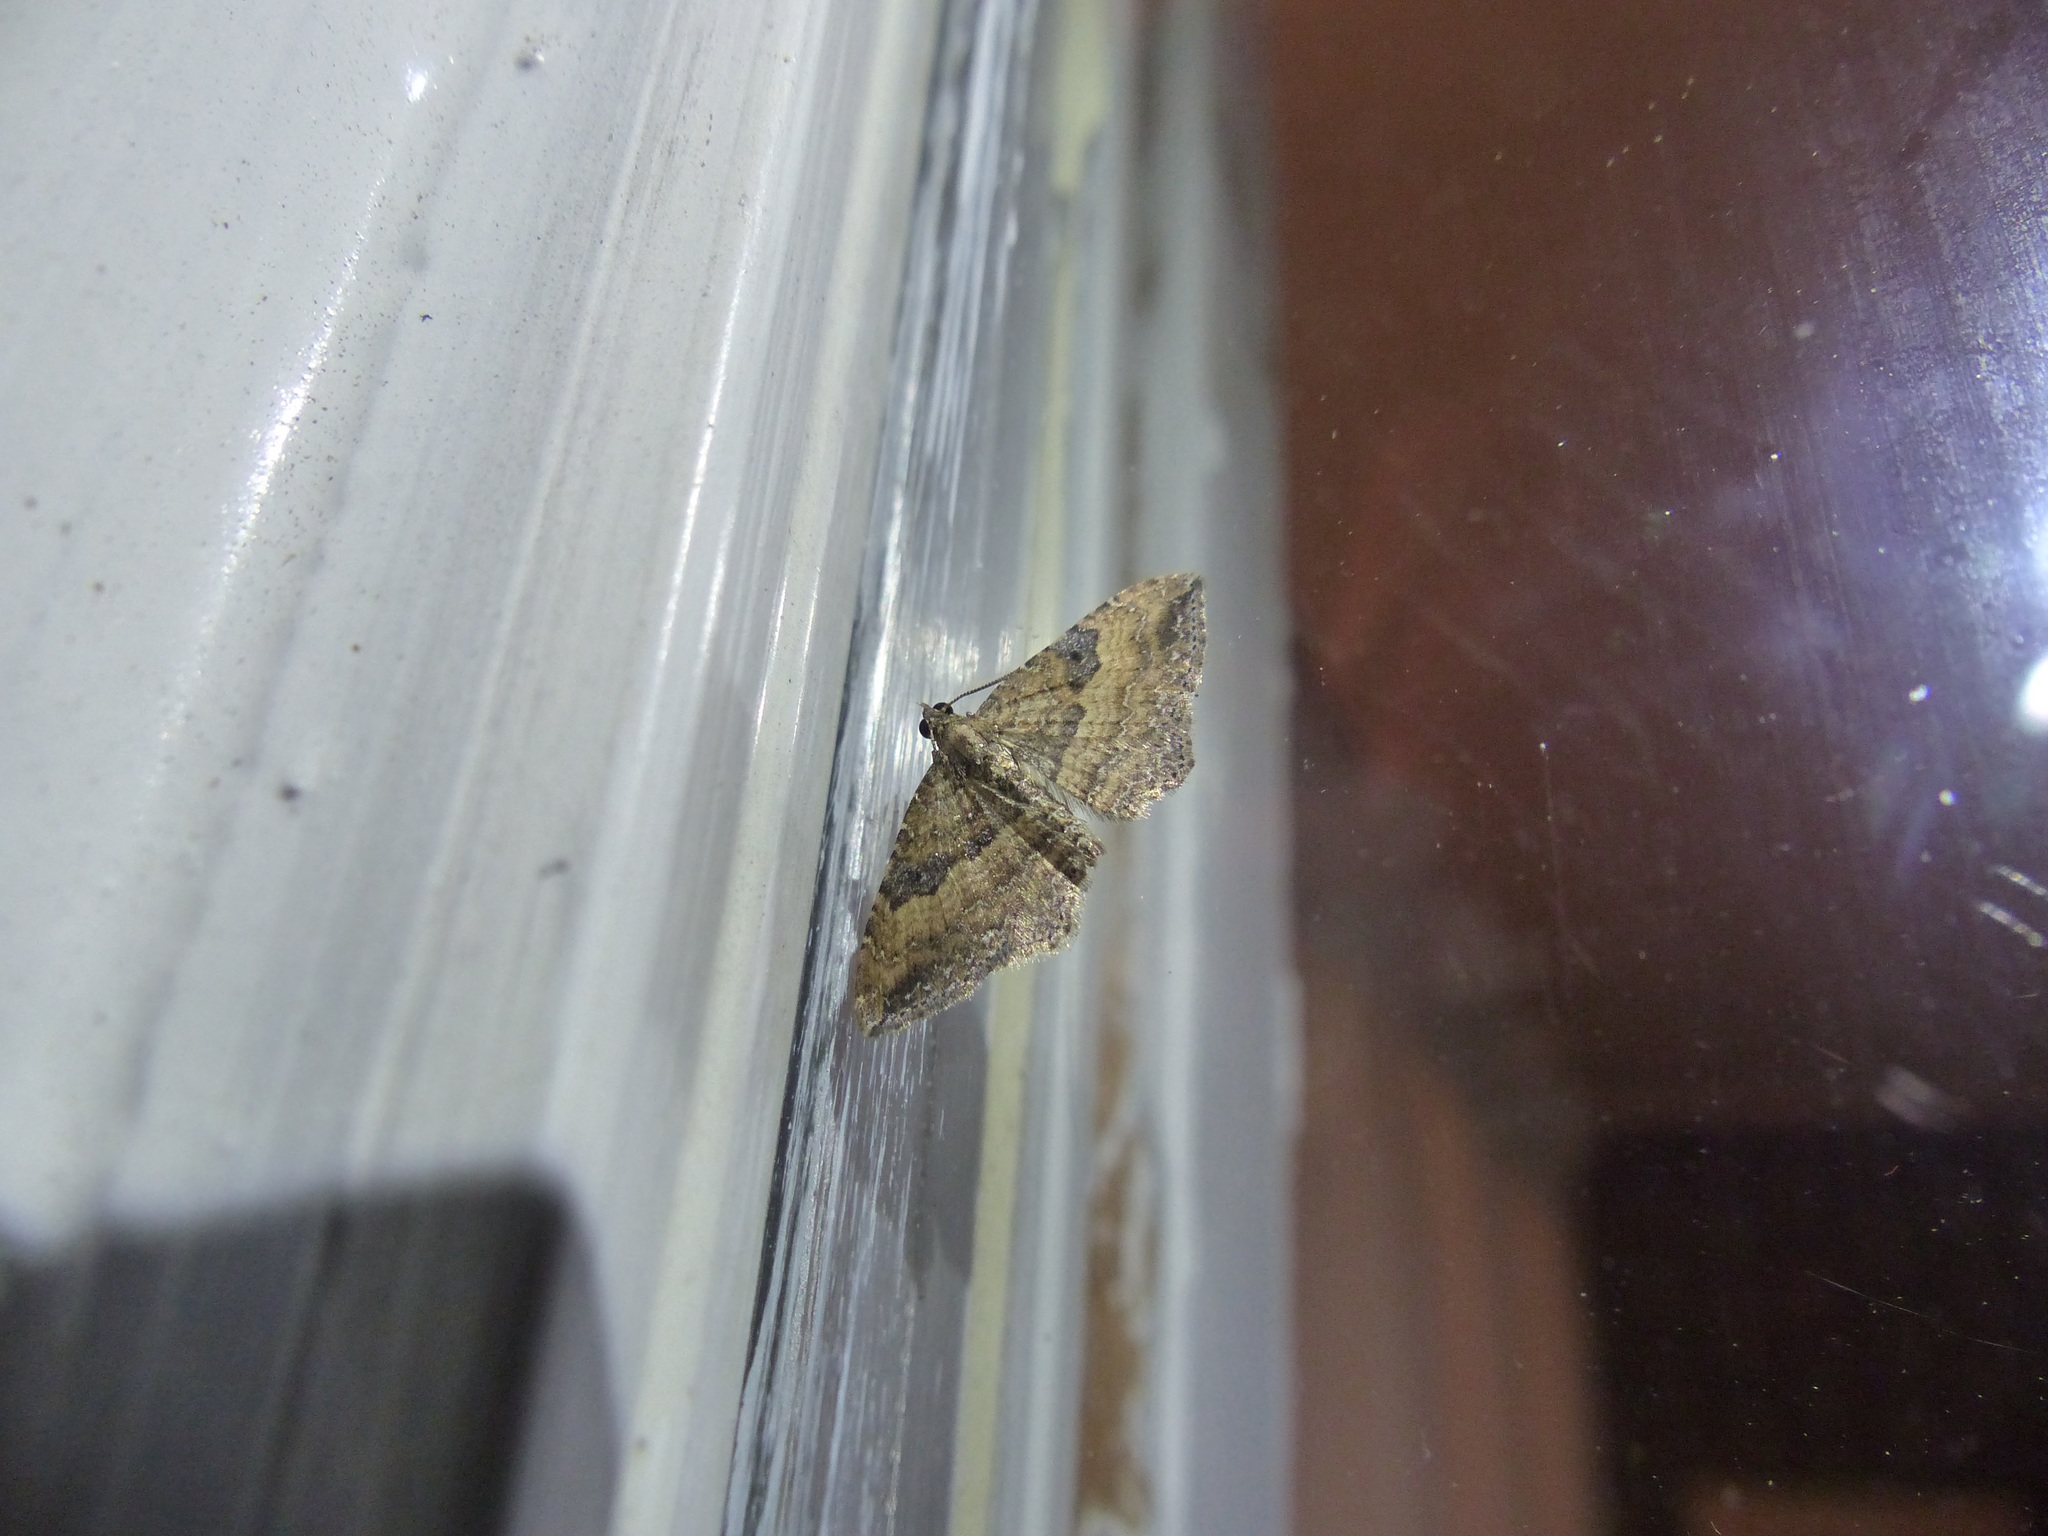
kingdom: Animalia
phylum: Arthropoda
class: Insecta
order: Lepidoptera
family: Geometridae
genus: Orthonama
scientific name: Orthonama obstipata
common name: The gem
